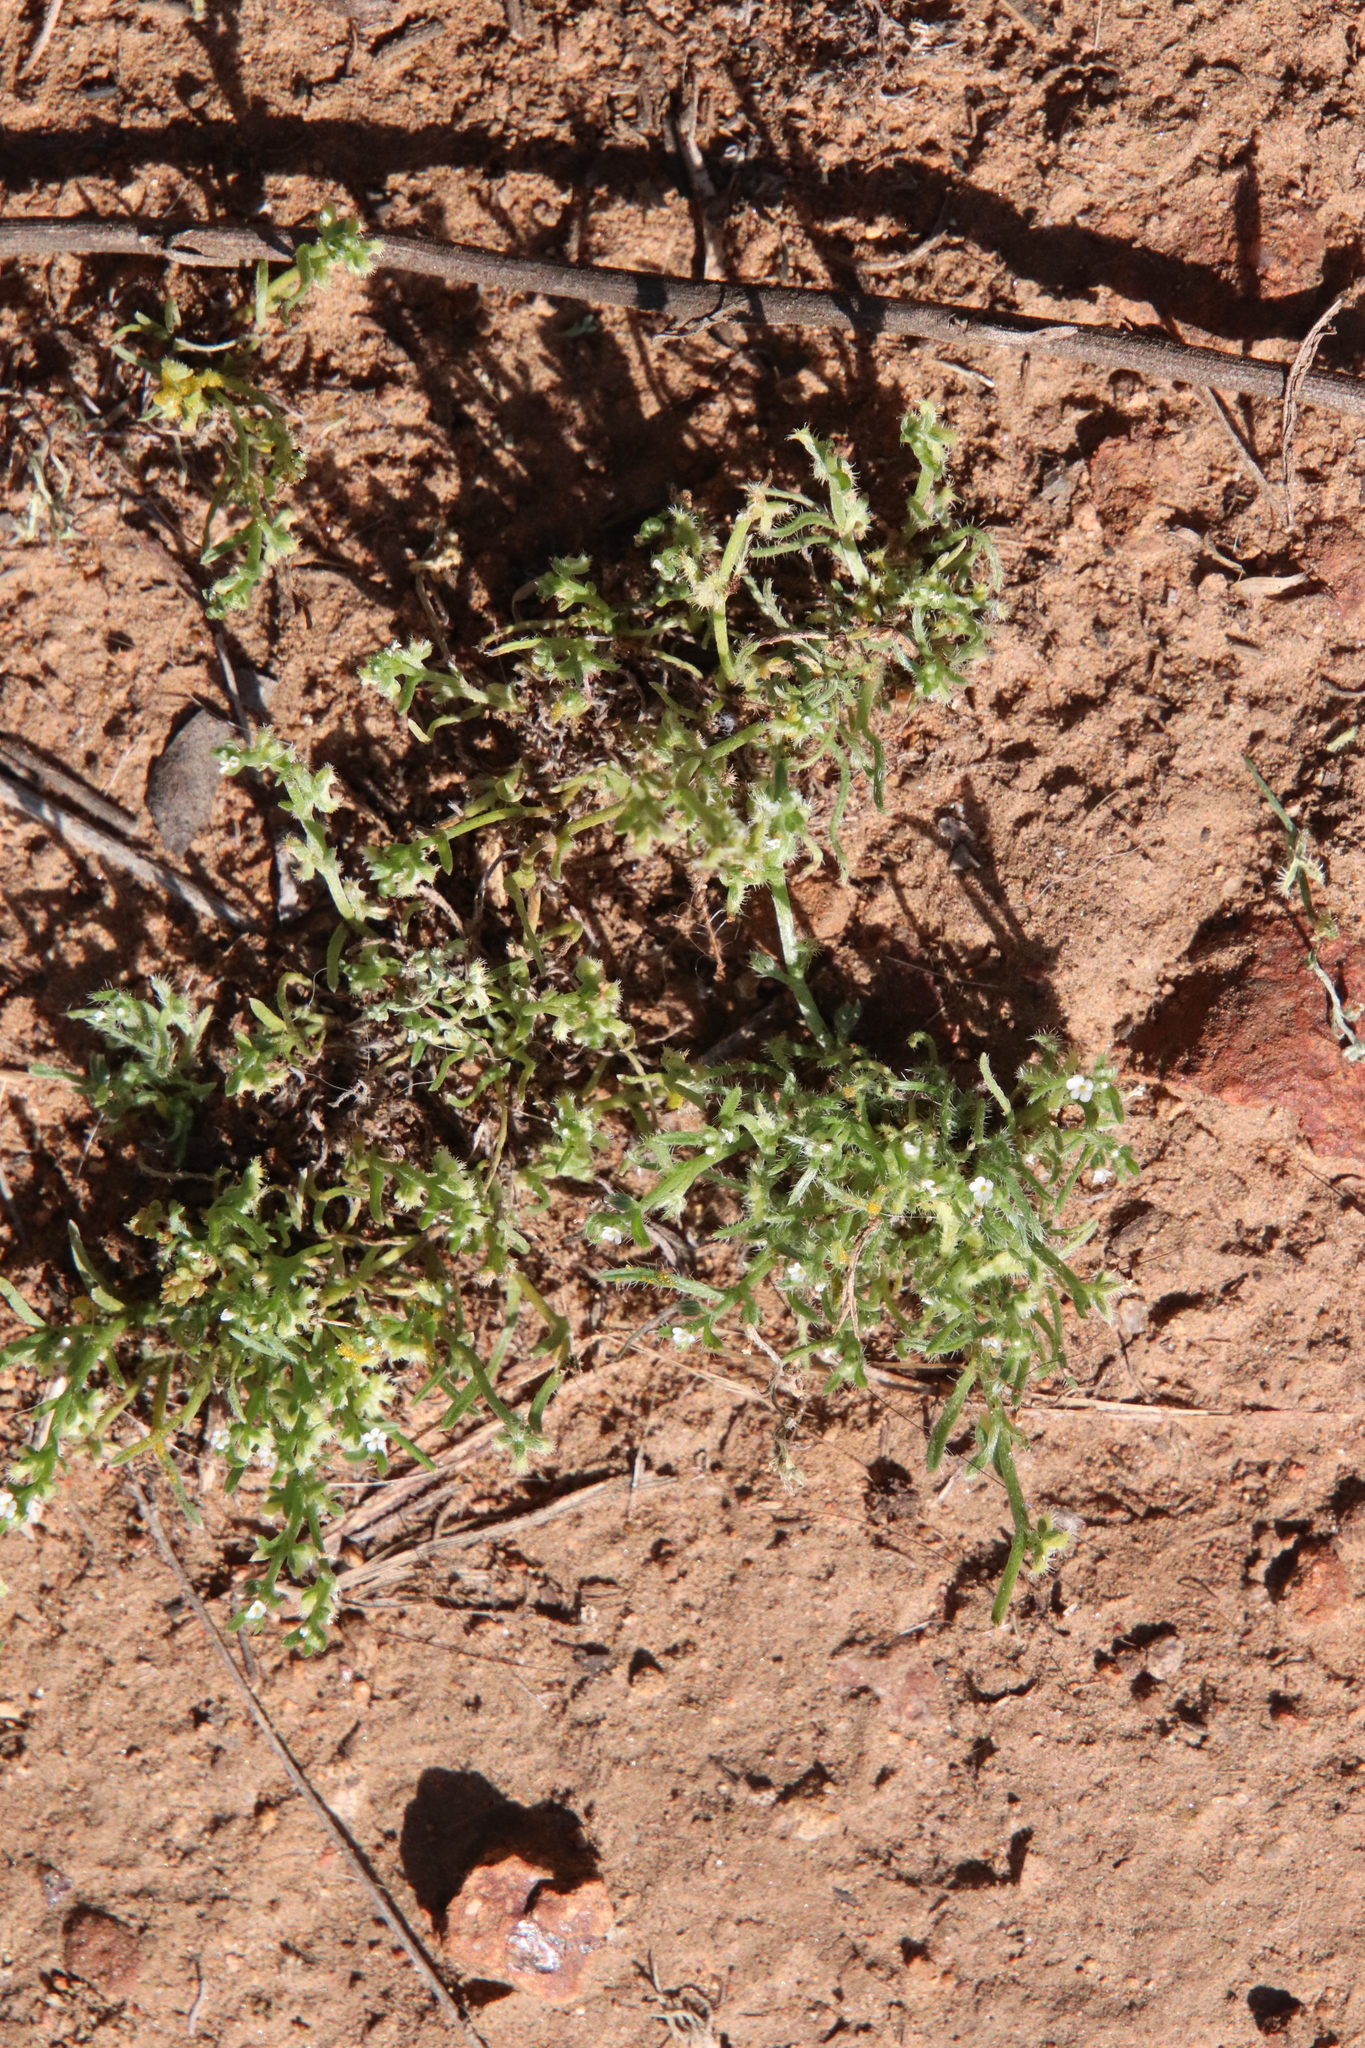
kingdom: Plantae
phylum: Tracheophyta
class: Magnoliopsida
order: Boraginales
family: Boraginaceae
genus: Pectocarya
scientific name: Pectocarya penicillata
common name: Short-leaved combseed
